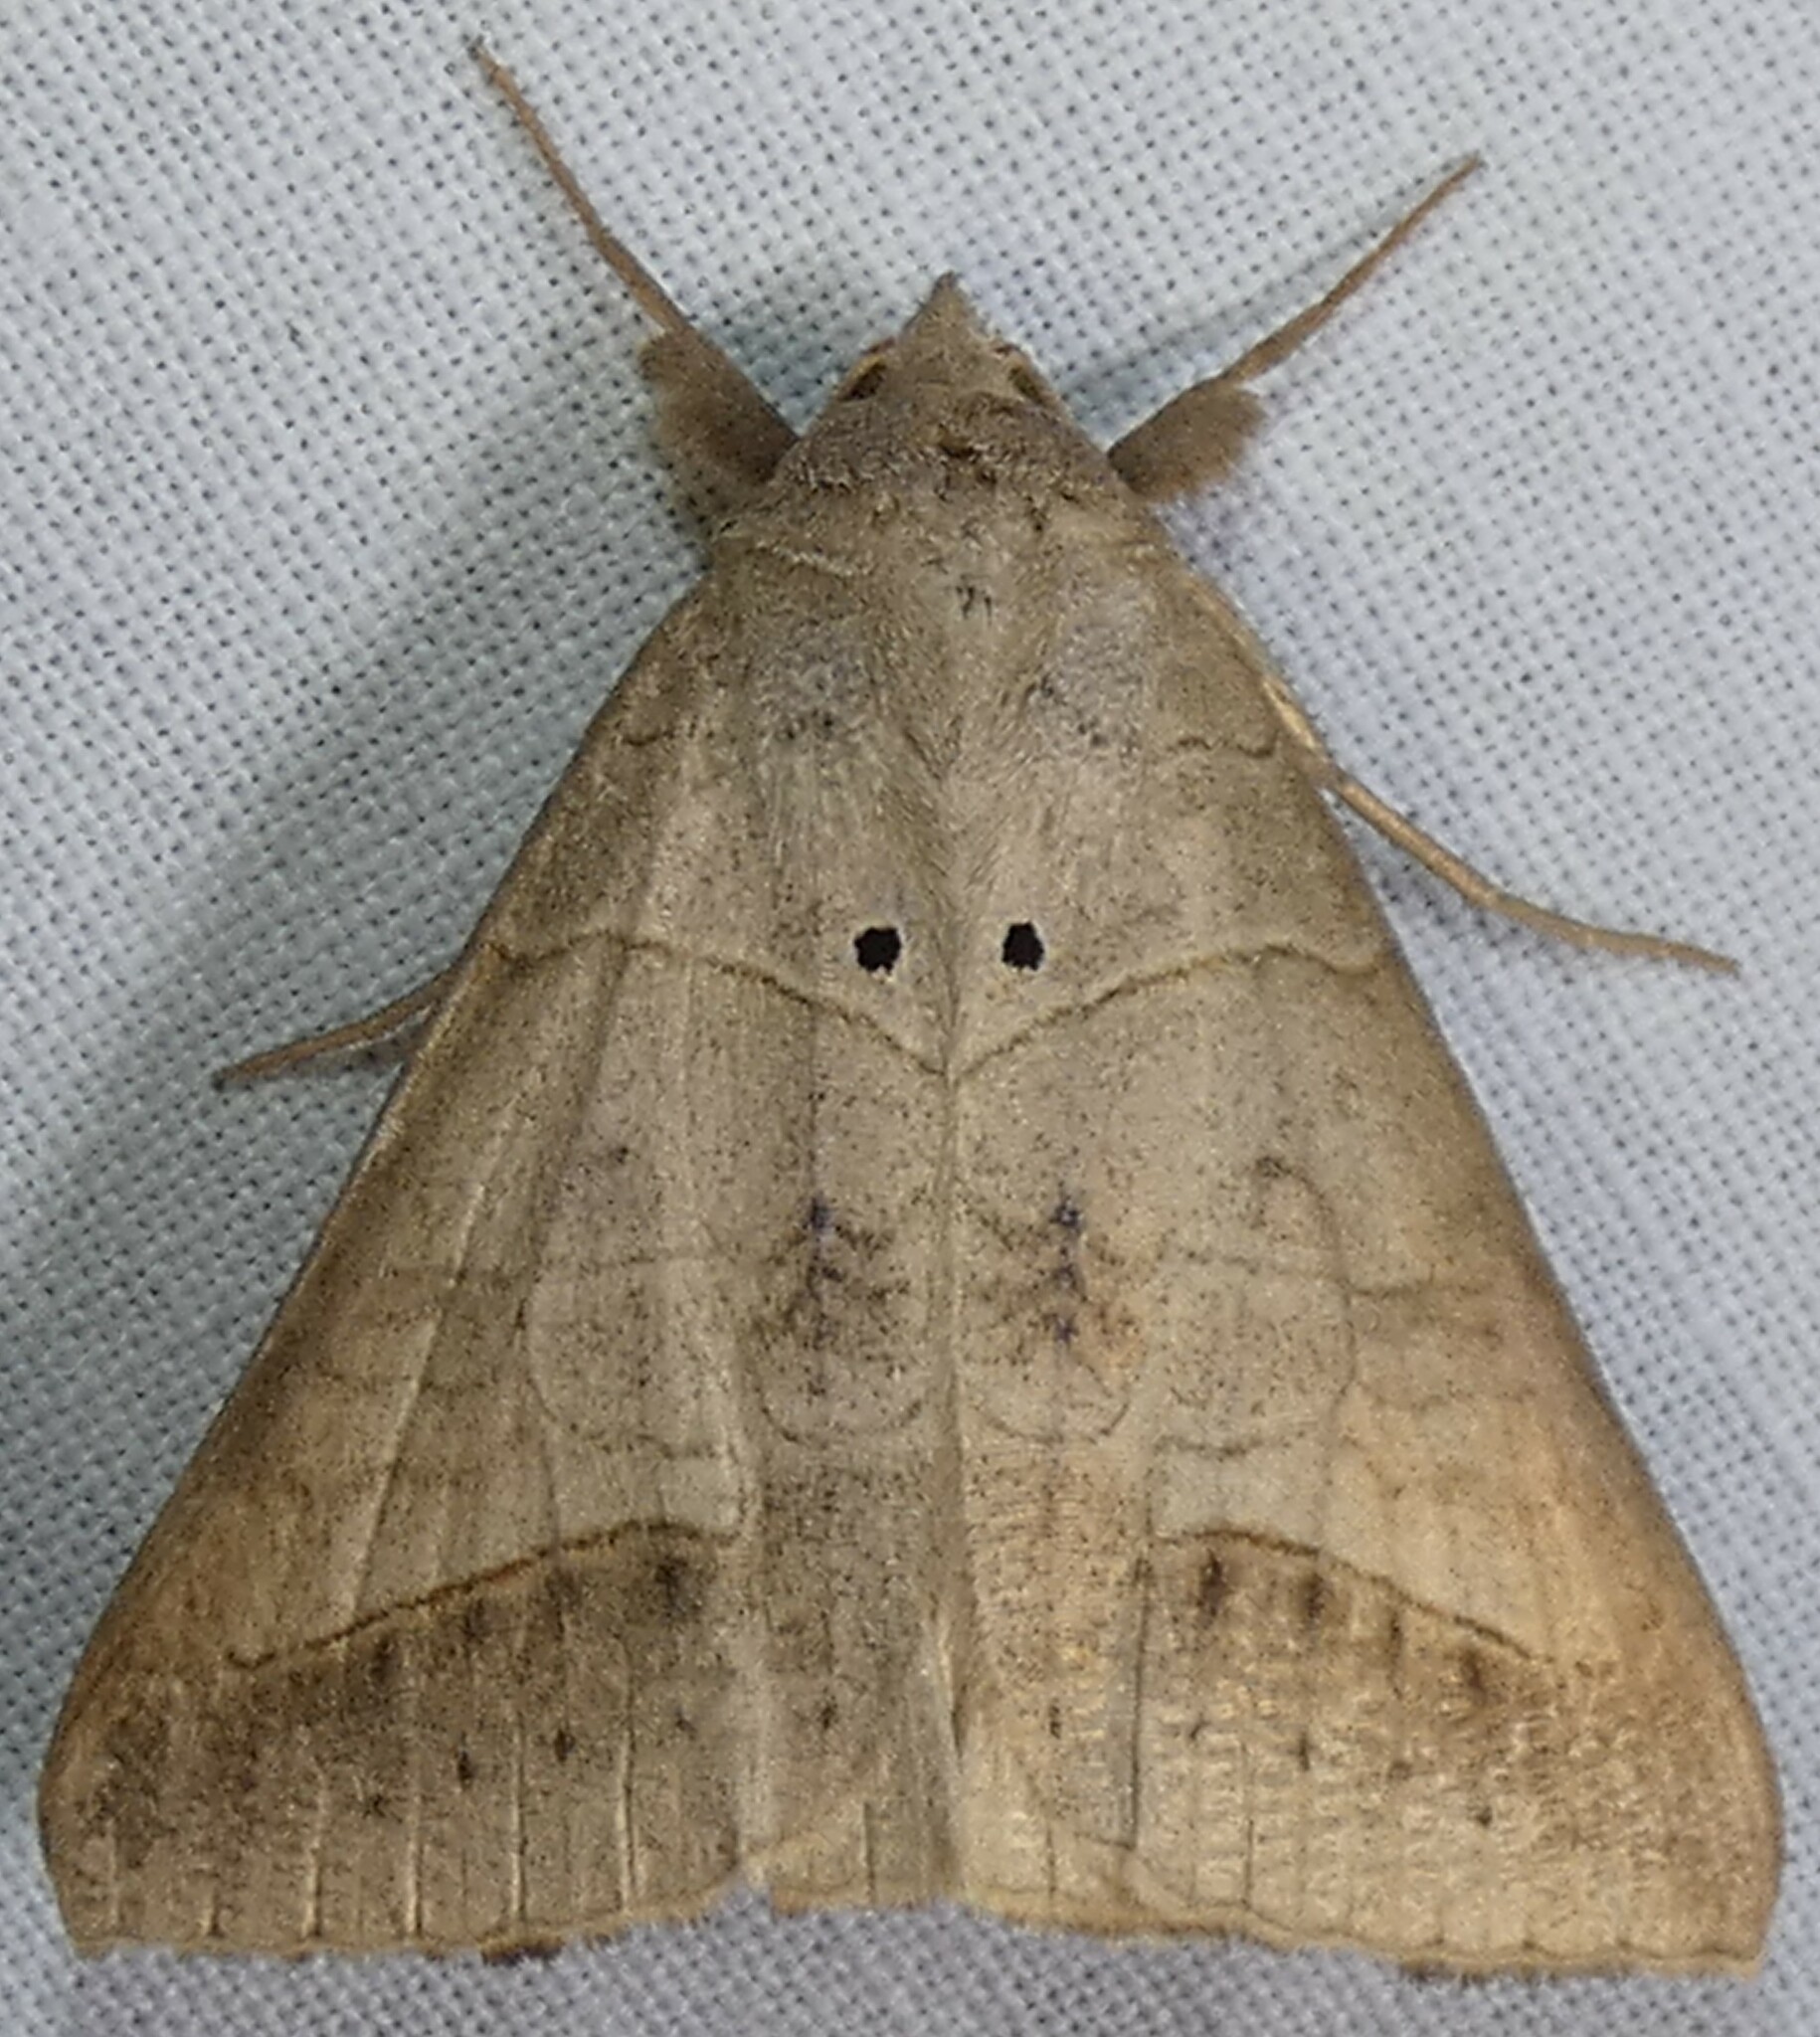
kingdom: Animalia
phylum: Arthropoda
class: Insecta
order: Lepidoptera
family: Erebidae
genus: Mocis
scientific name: Mocis marcida
